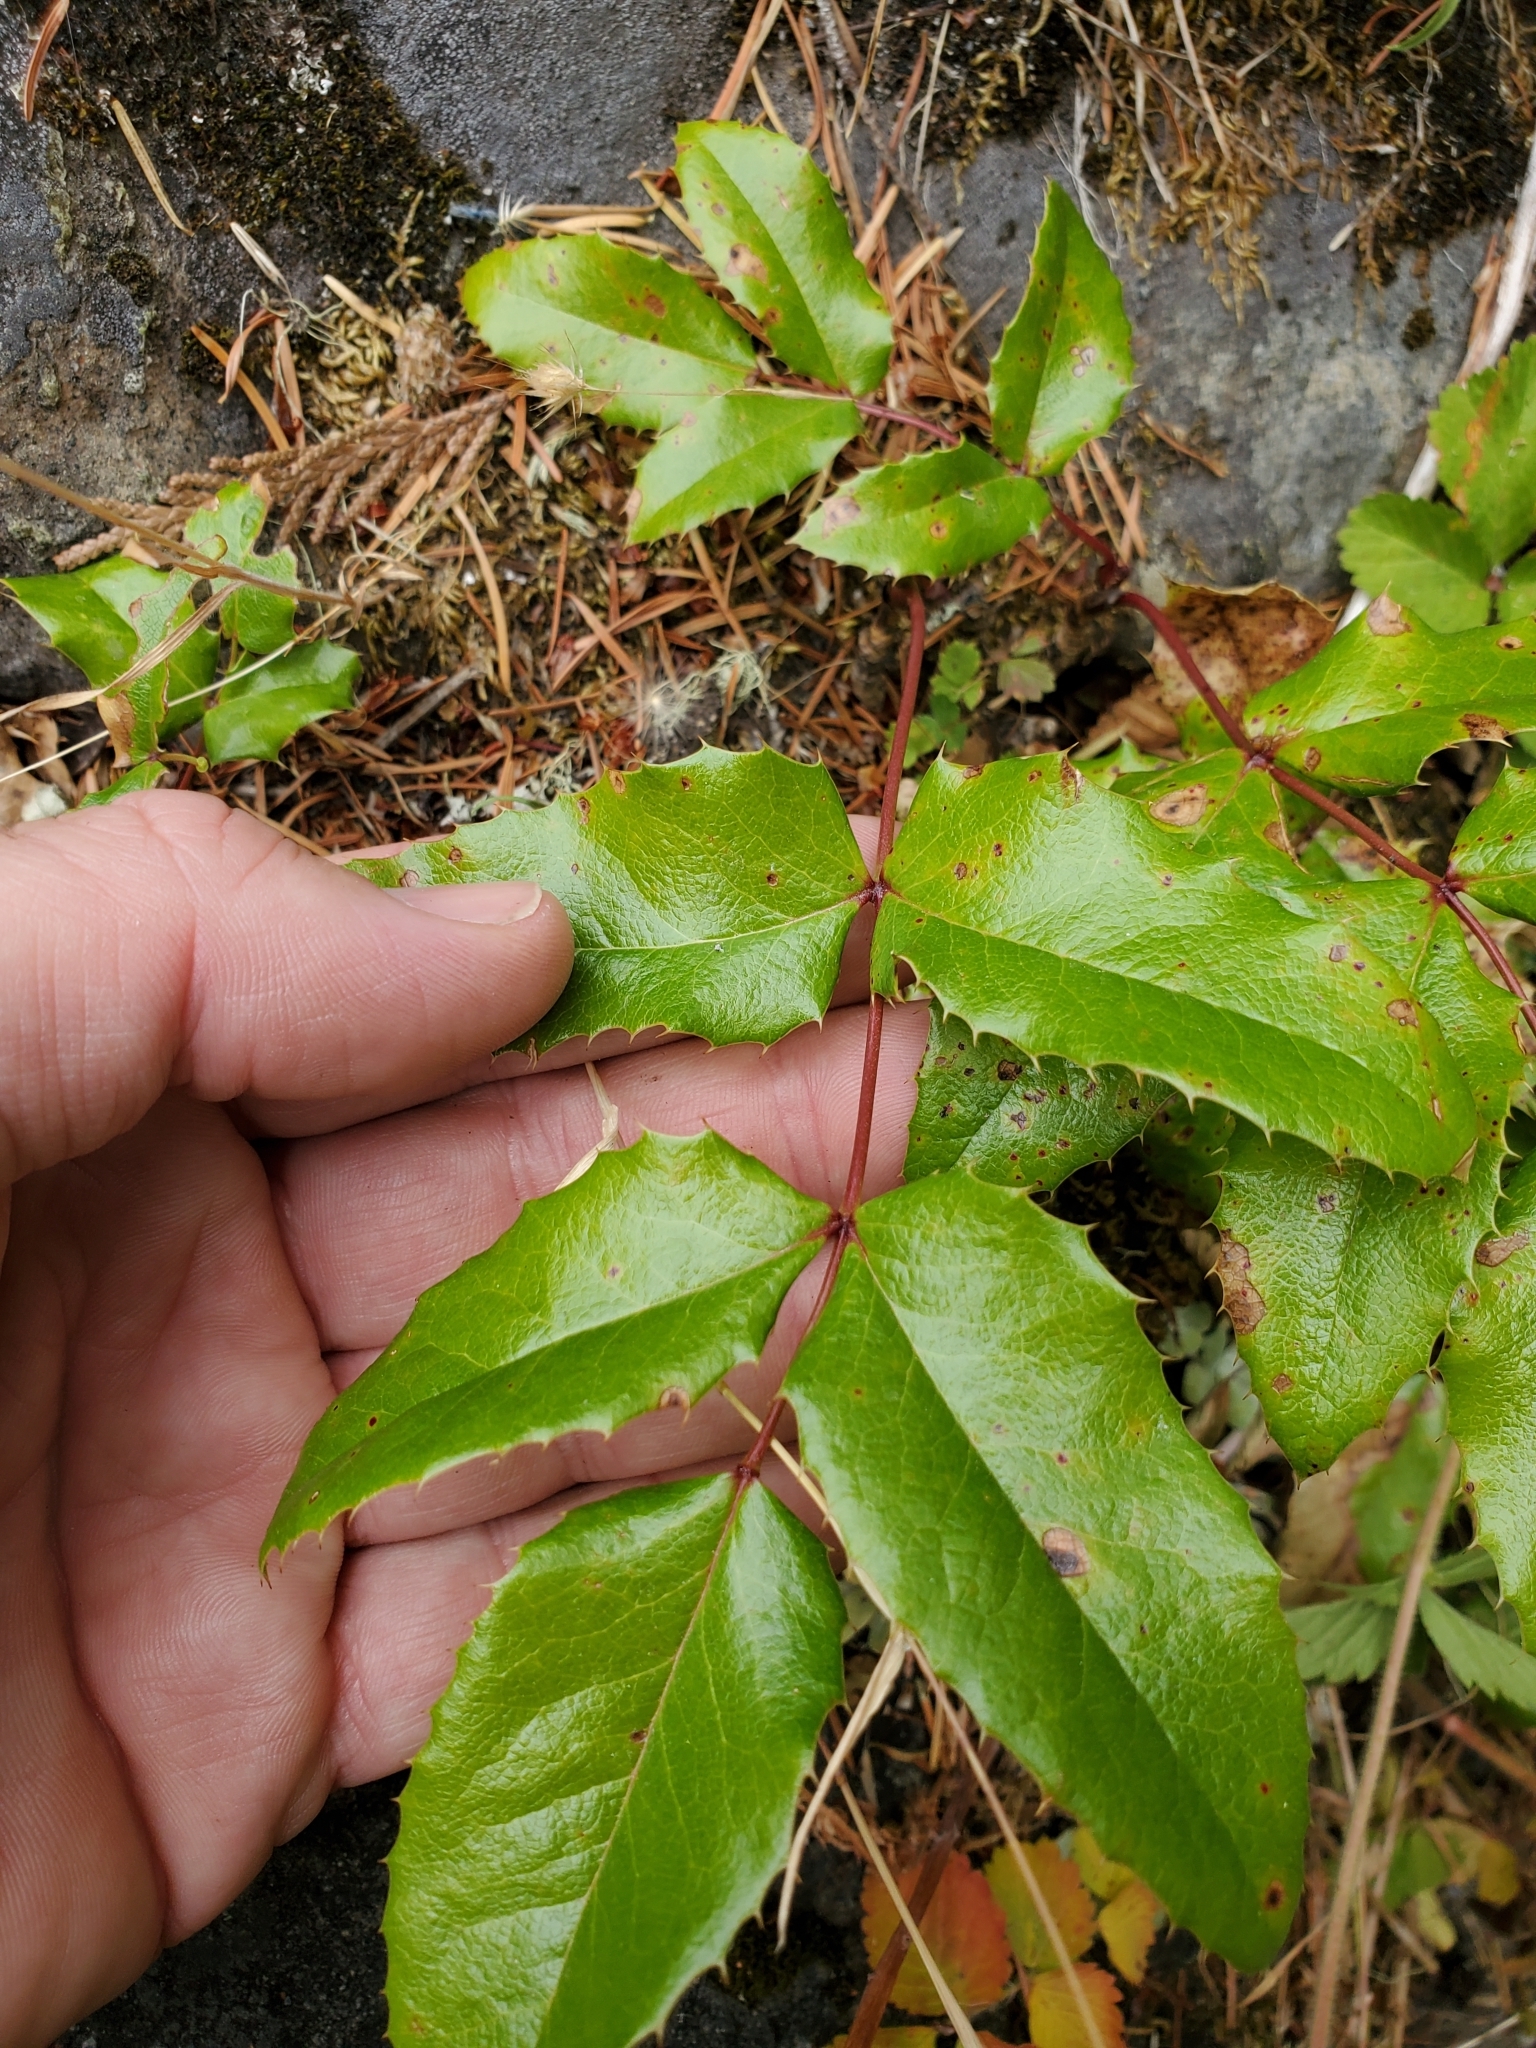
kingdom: Plantae
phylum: Tracheophyta
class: Magnoliopsida
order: Ranunculales
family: Berberidaceae
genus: Mahonia
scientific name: Mahonia aquifolium
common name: Oregon-grape
